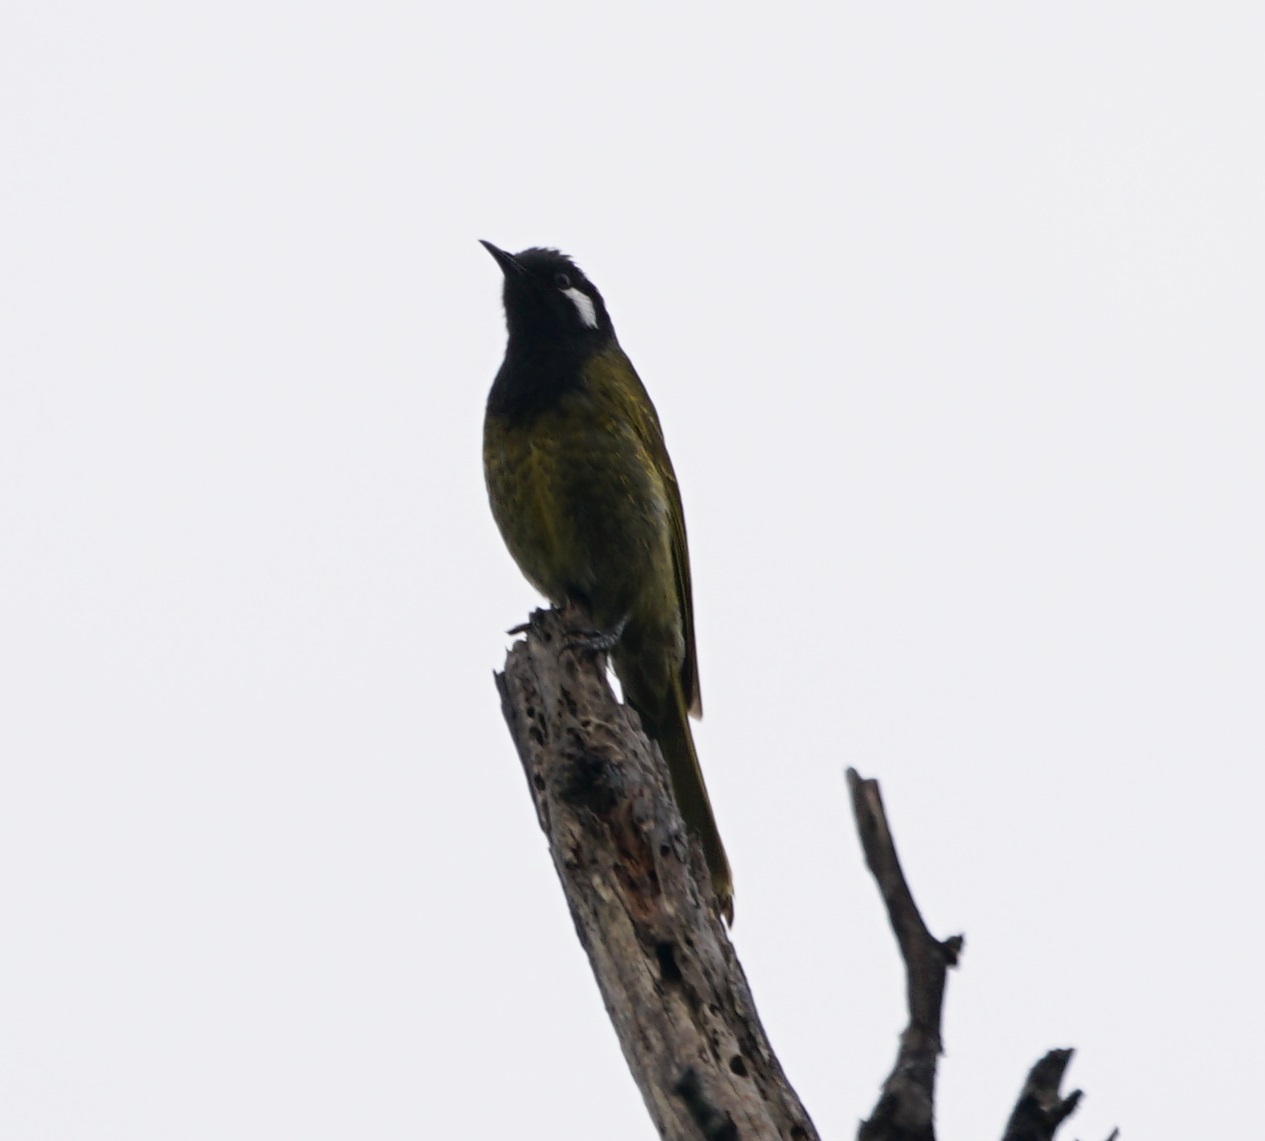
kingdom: Animalia
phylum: Chordata
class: Aves
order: Passeriformes
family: Meliphagidae
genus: Nesoptilotis
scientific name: Nesoptilotis leucotis
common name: White-eared honeyeater
